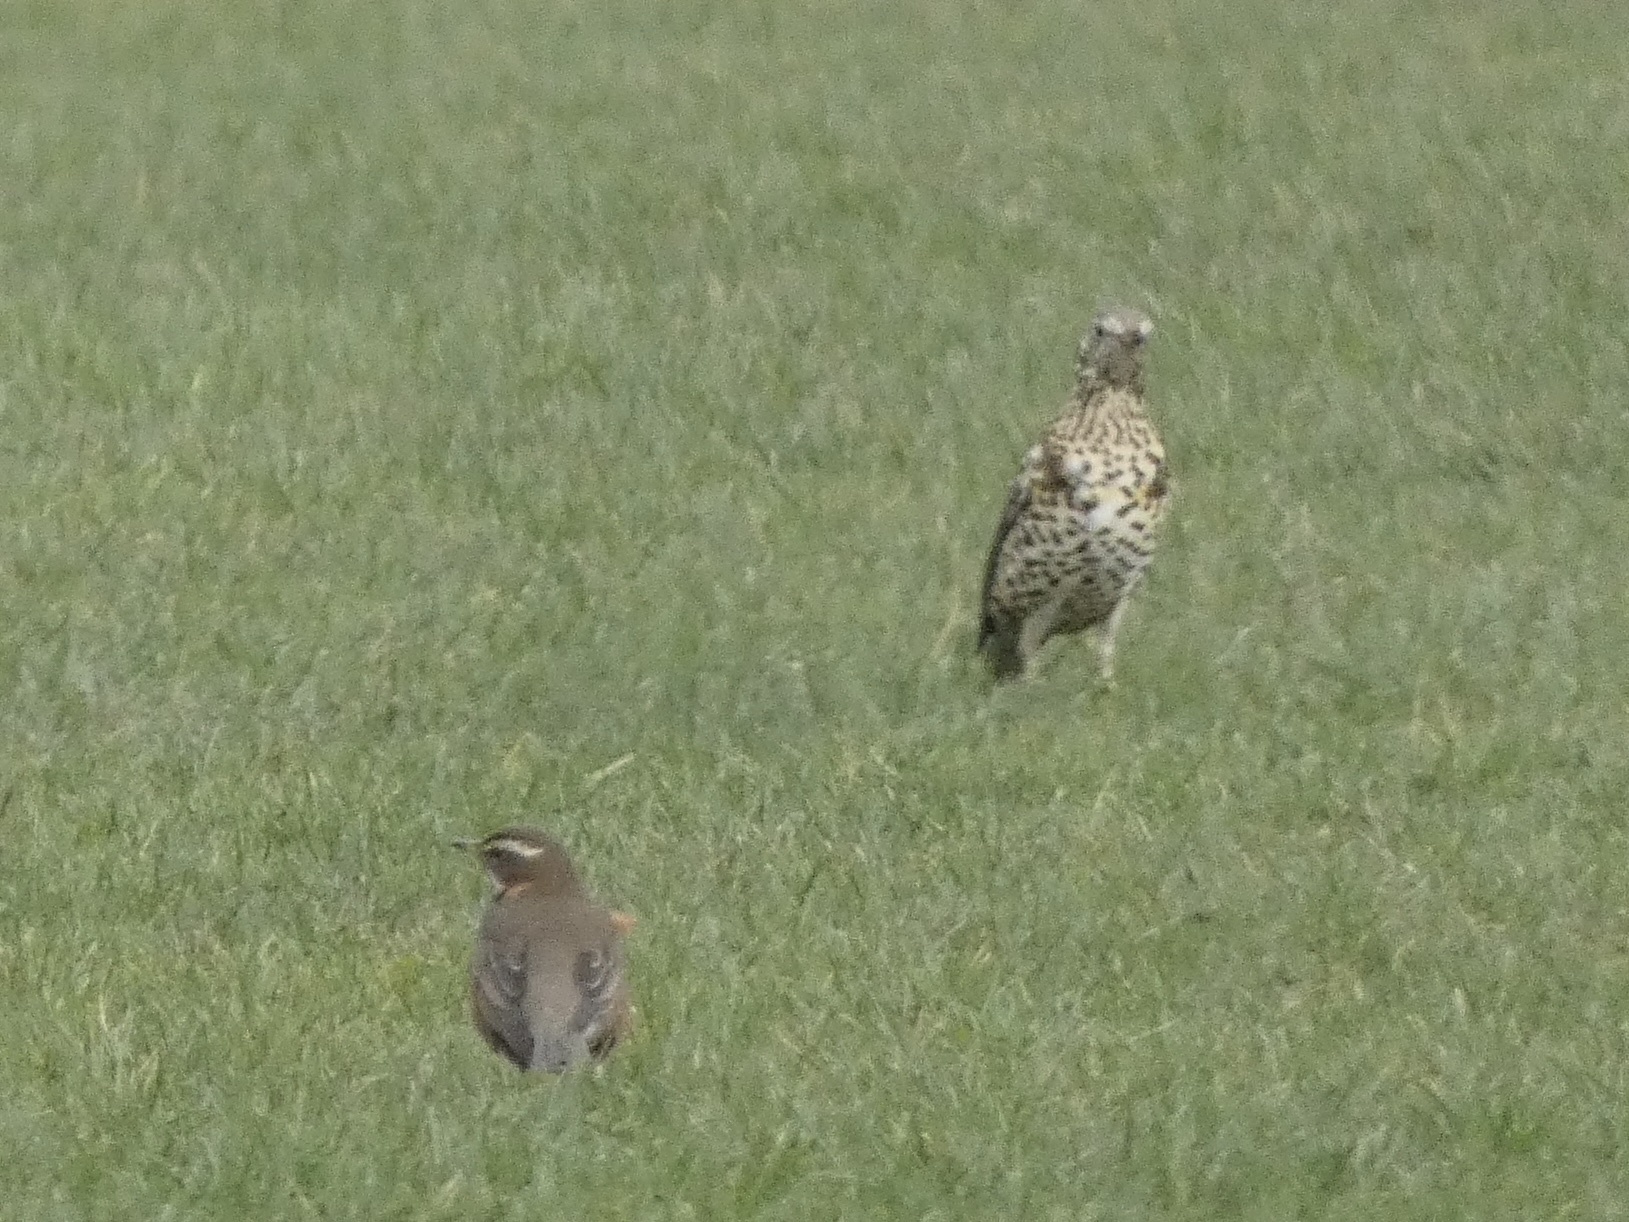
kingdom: Animalia
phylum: Chordata
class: Aves
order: Passeriformes
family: Turdidae
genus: Turdus
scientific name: Turdus viscivorus
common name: Mistle thrush
